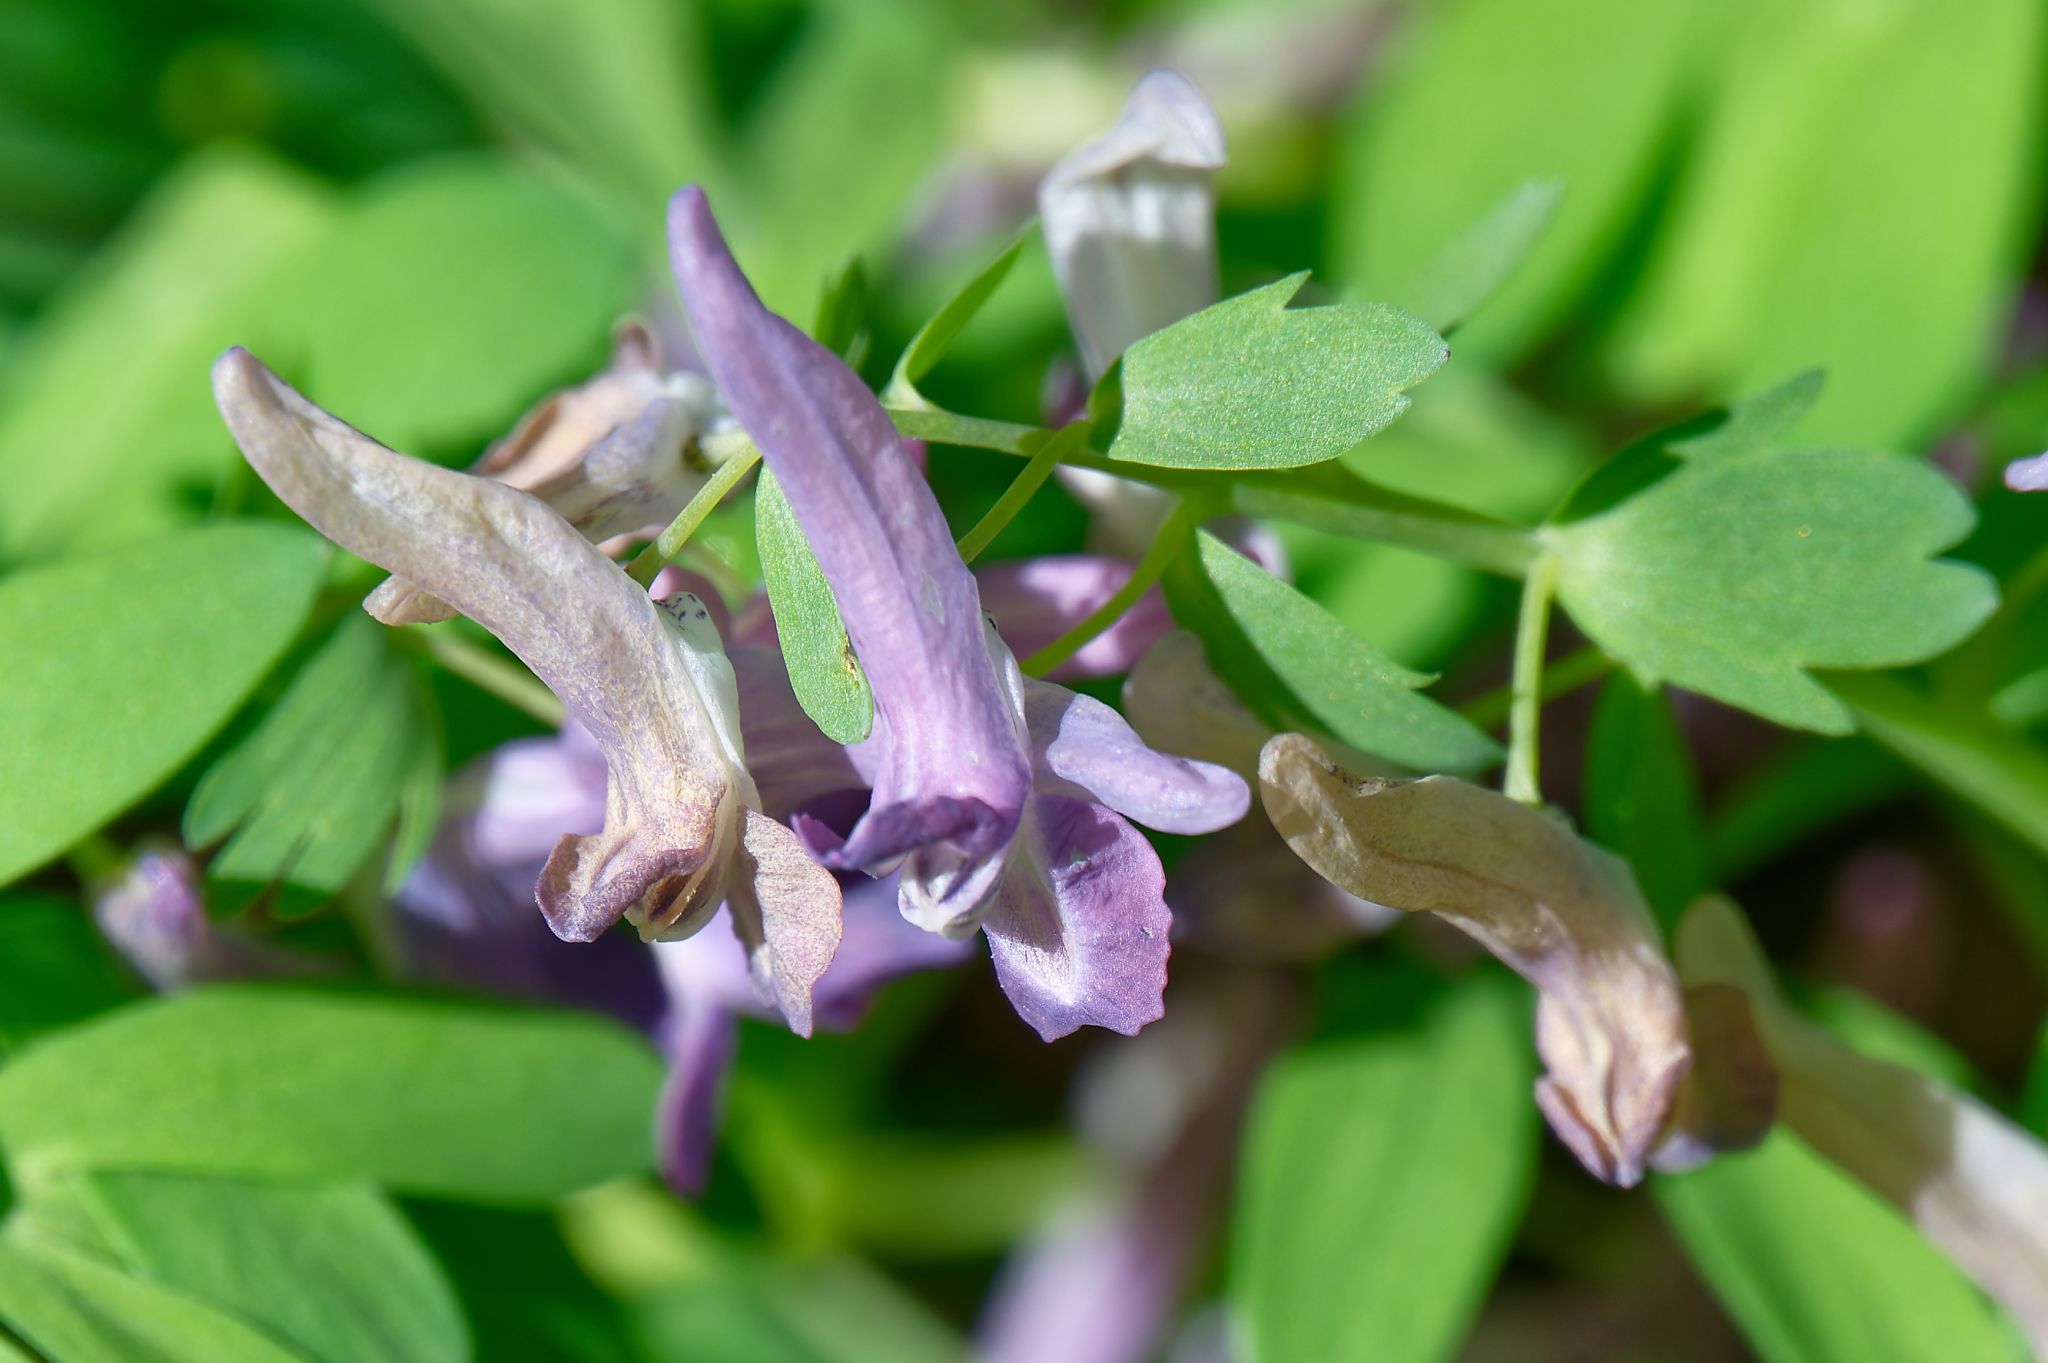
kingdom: Plantae
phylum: Tracheophyta
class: Magnoliopsida
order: Ranunculales
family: Papaveraceae
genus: Corydalis
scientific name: Corydalis solida
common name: Bird-in-a-bush
